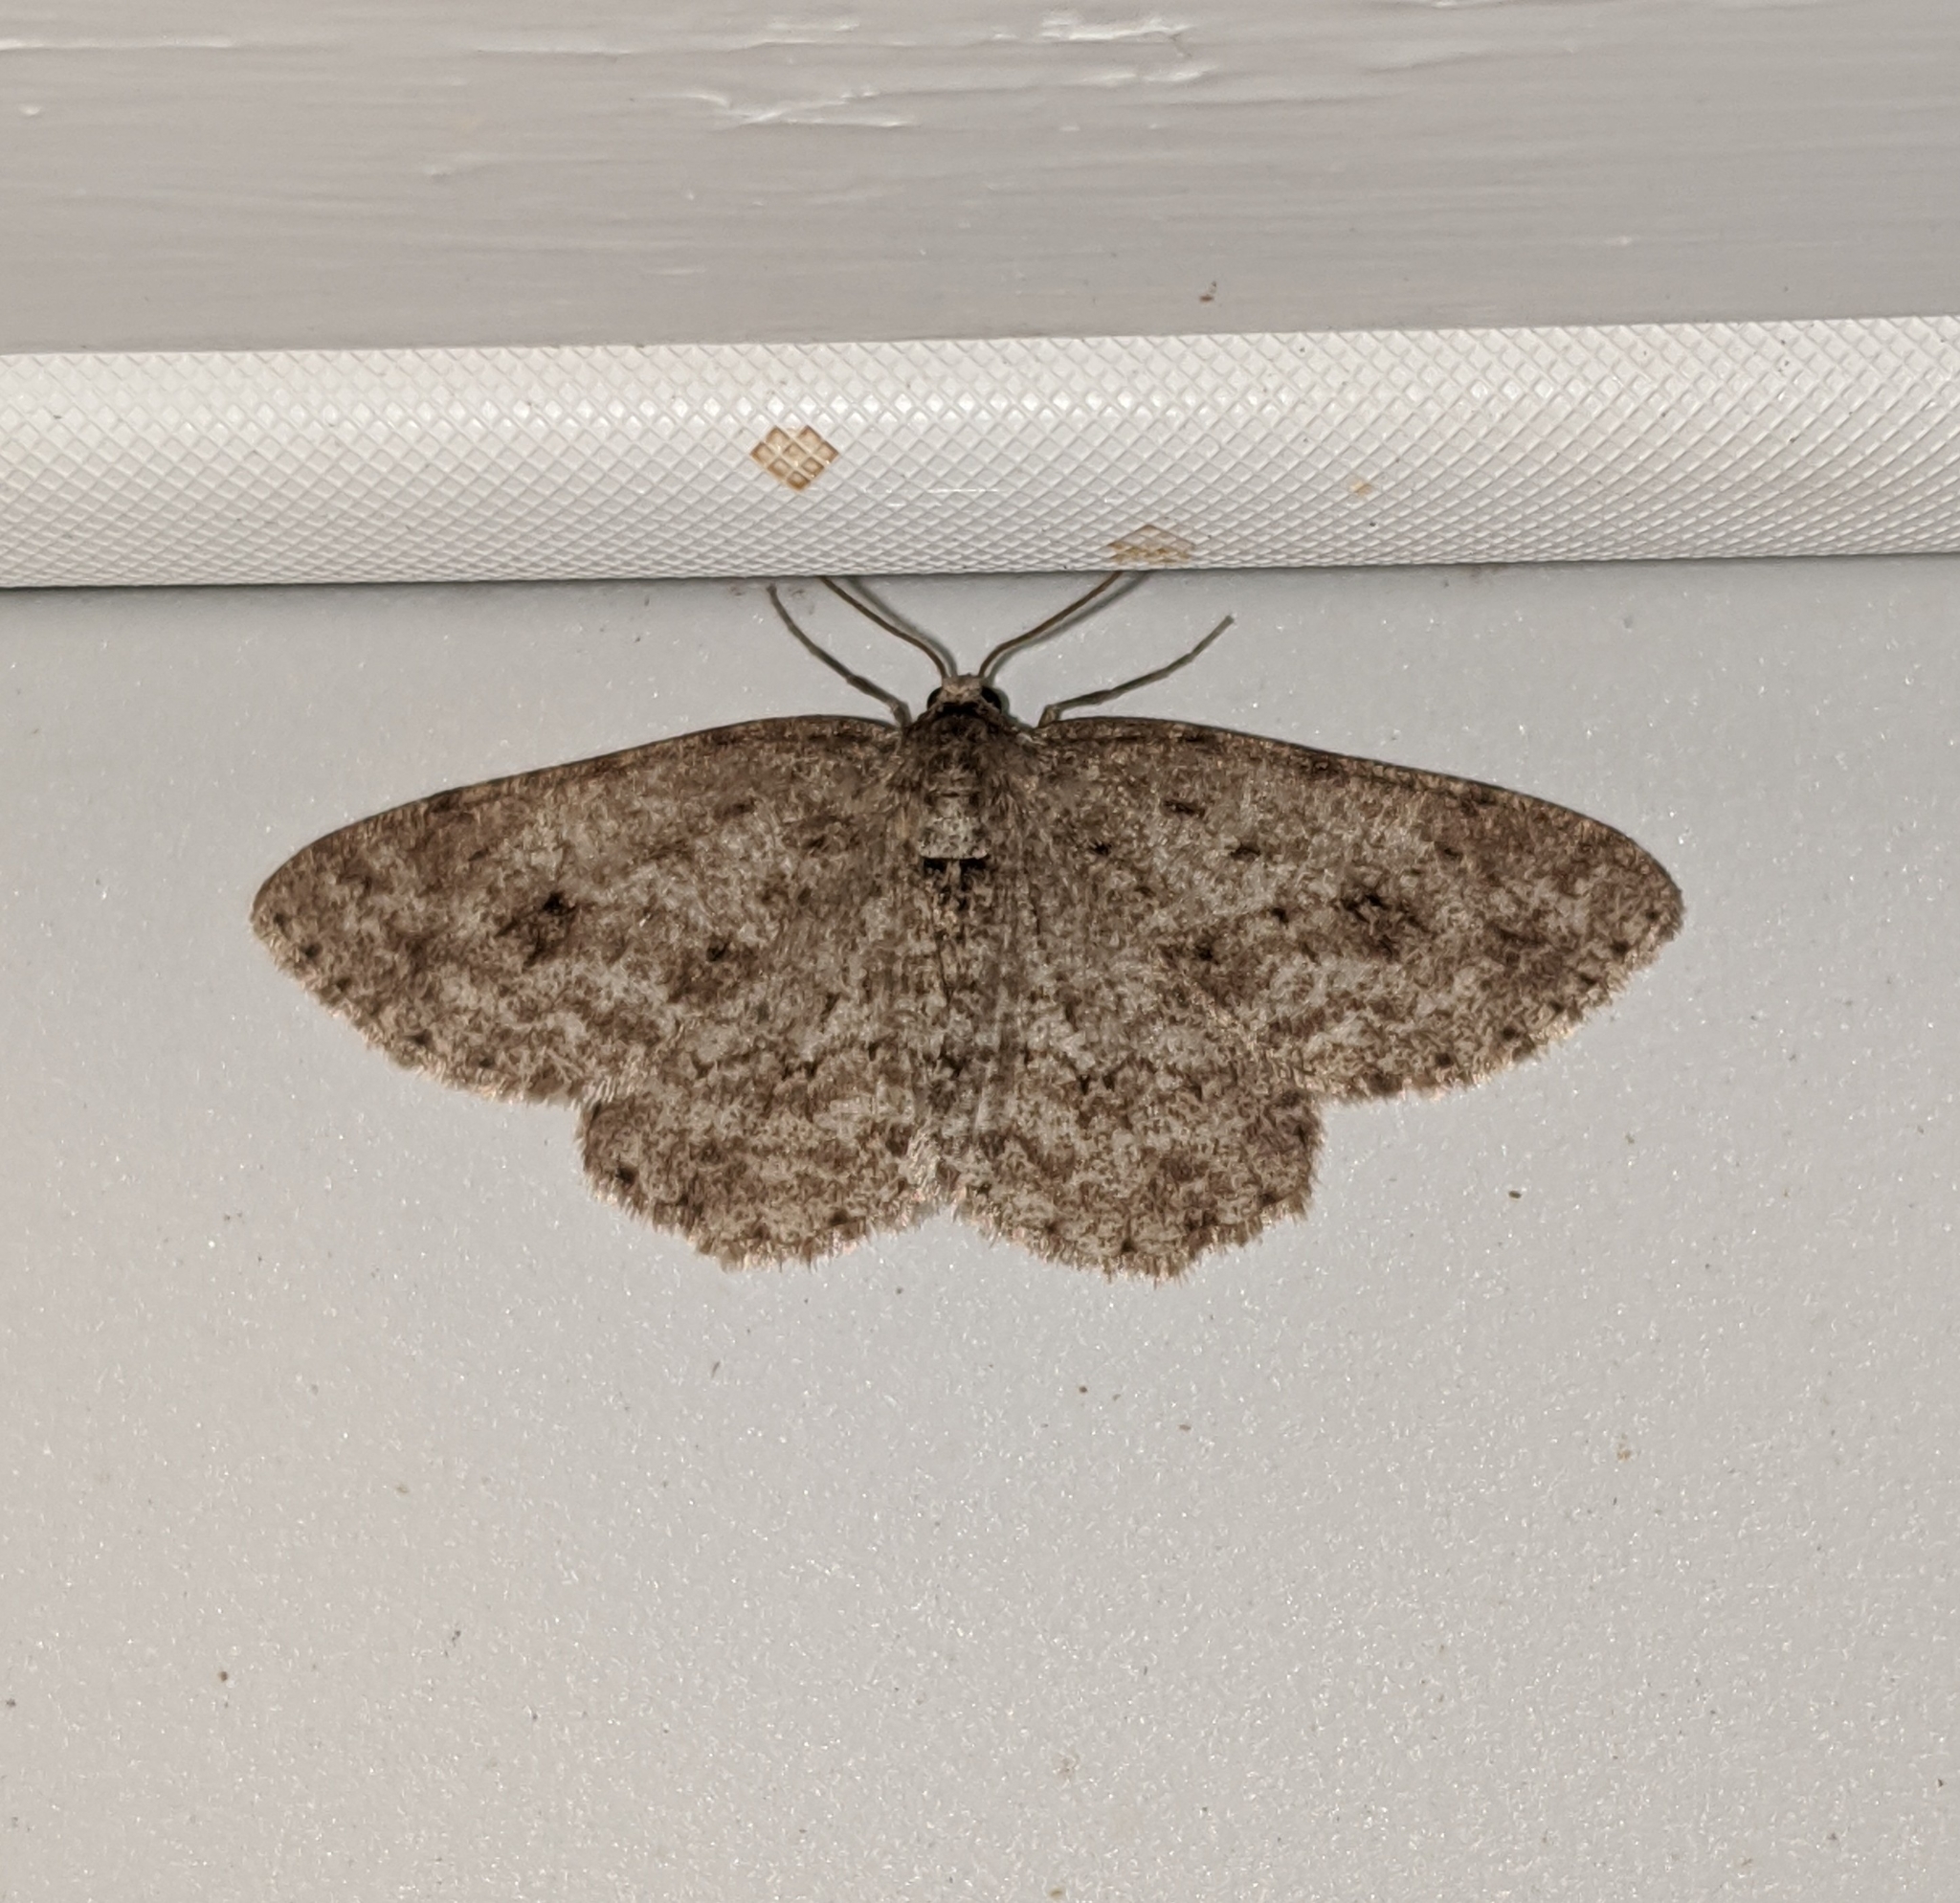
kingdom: Animalia
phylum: Arthropoda
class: Insecta
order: Lepidoptera
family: Geometridae
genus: Ectropis
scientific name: Ectropis crepuscularia
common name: Engrailed
